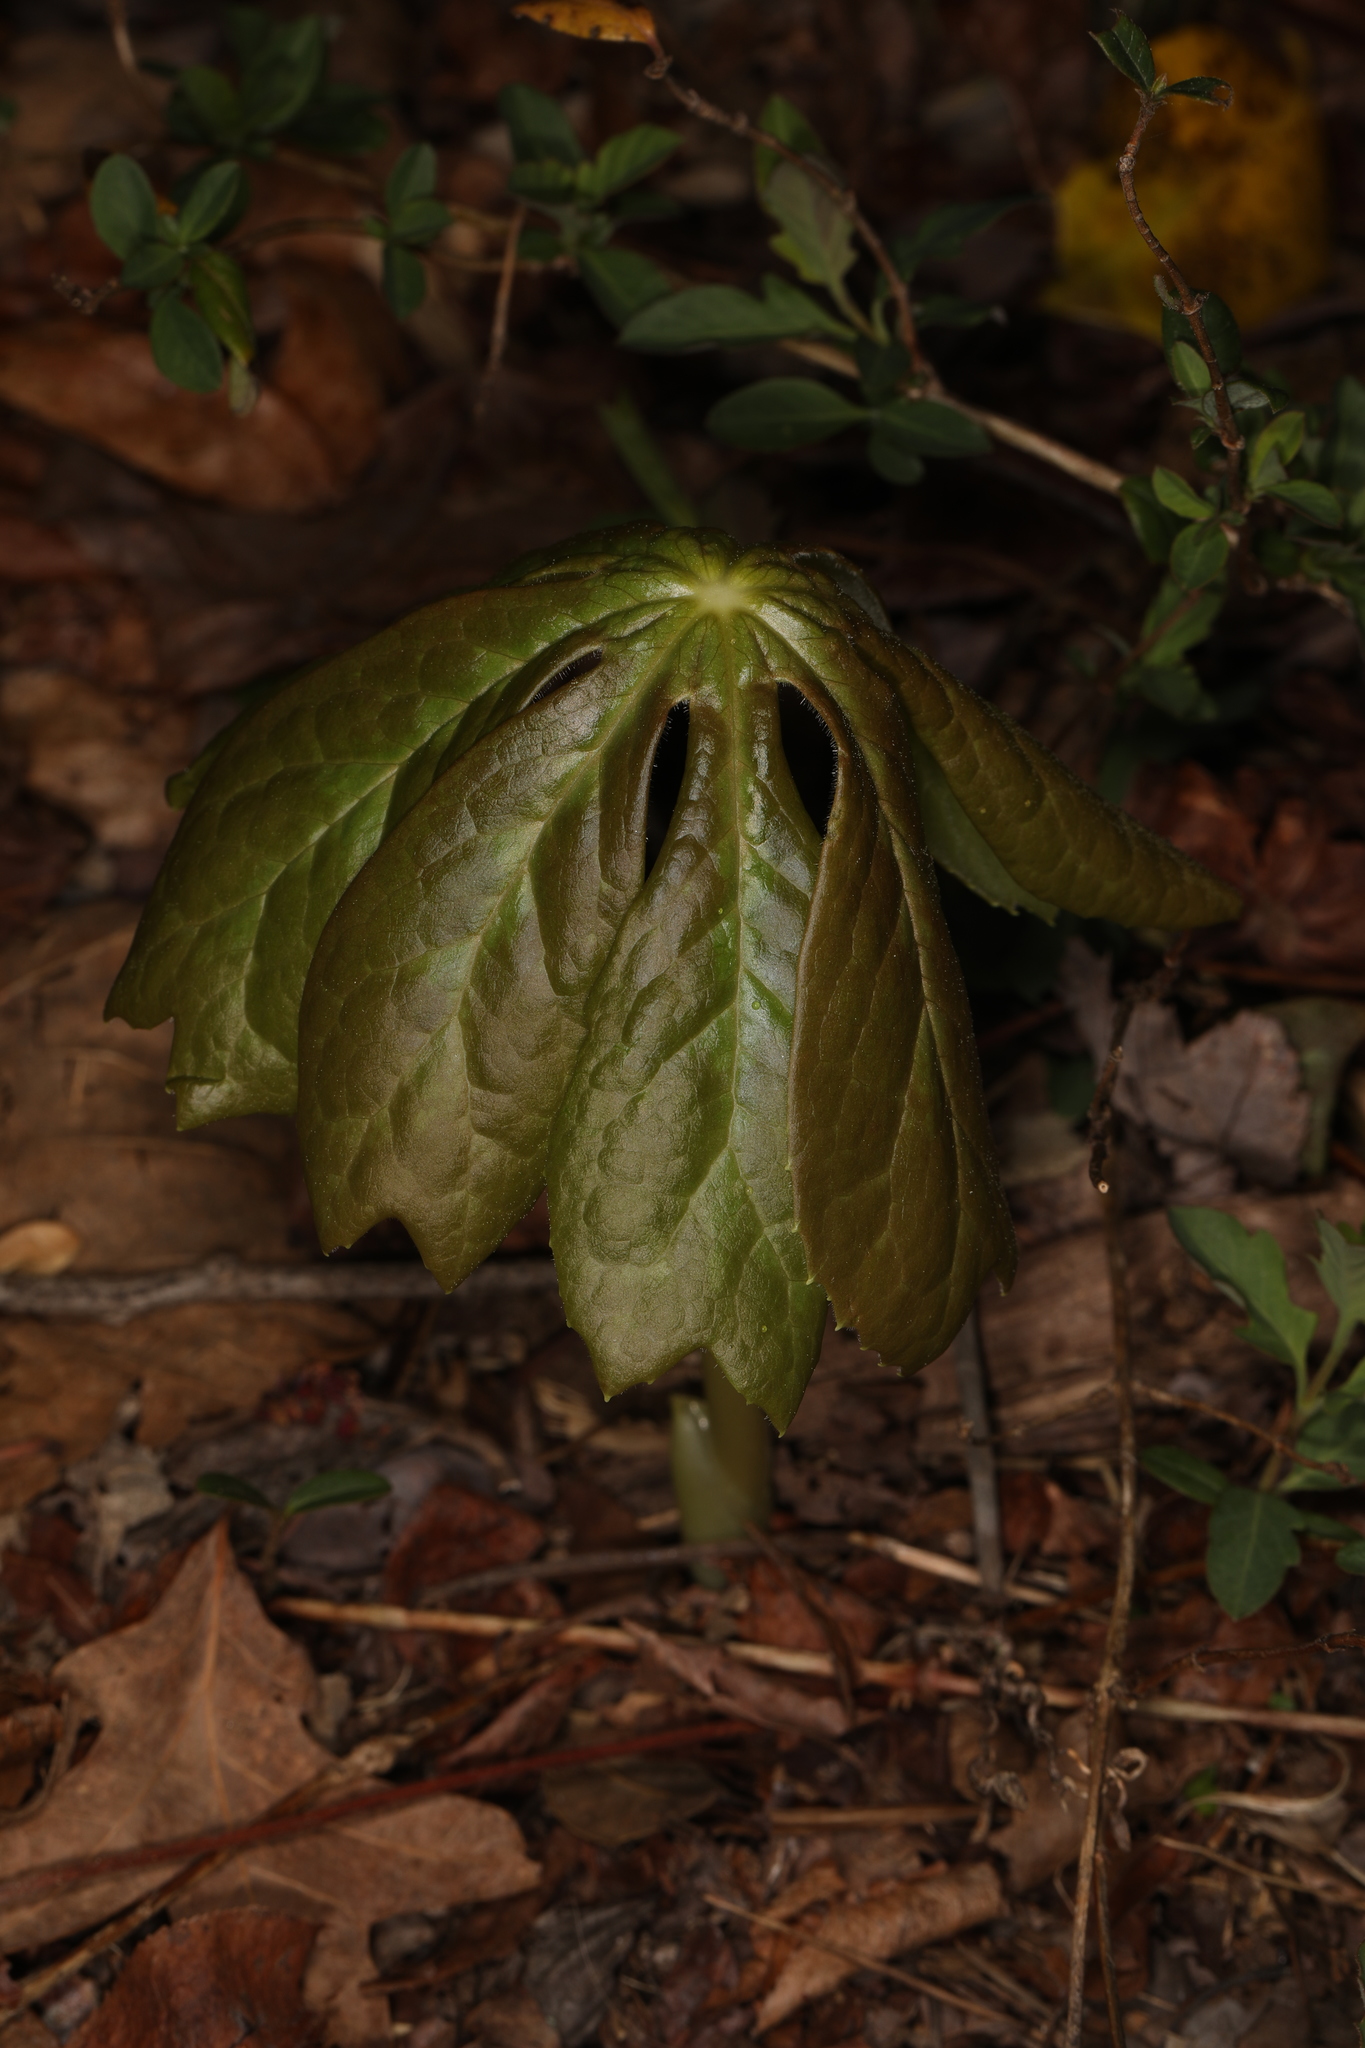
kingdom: Plantae
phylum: Tracheophyta
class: Magnoliopsida
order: Ranunculales
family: Berberidaceae
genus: Podophyllum
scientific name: Podophyllum peltatum
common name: Wild mandrake
